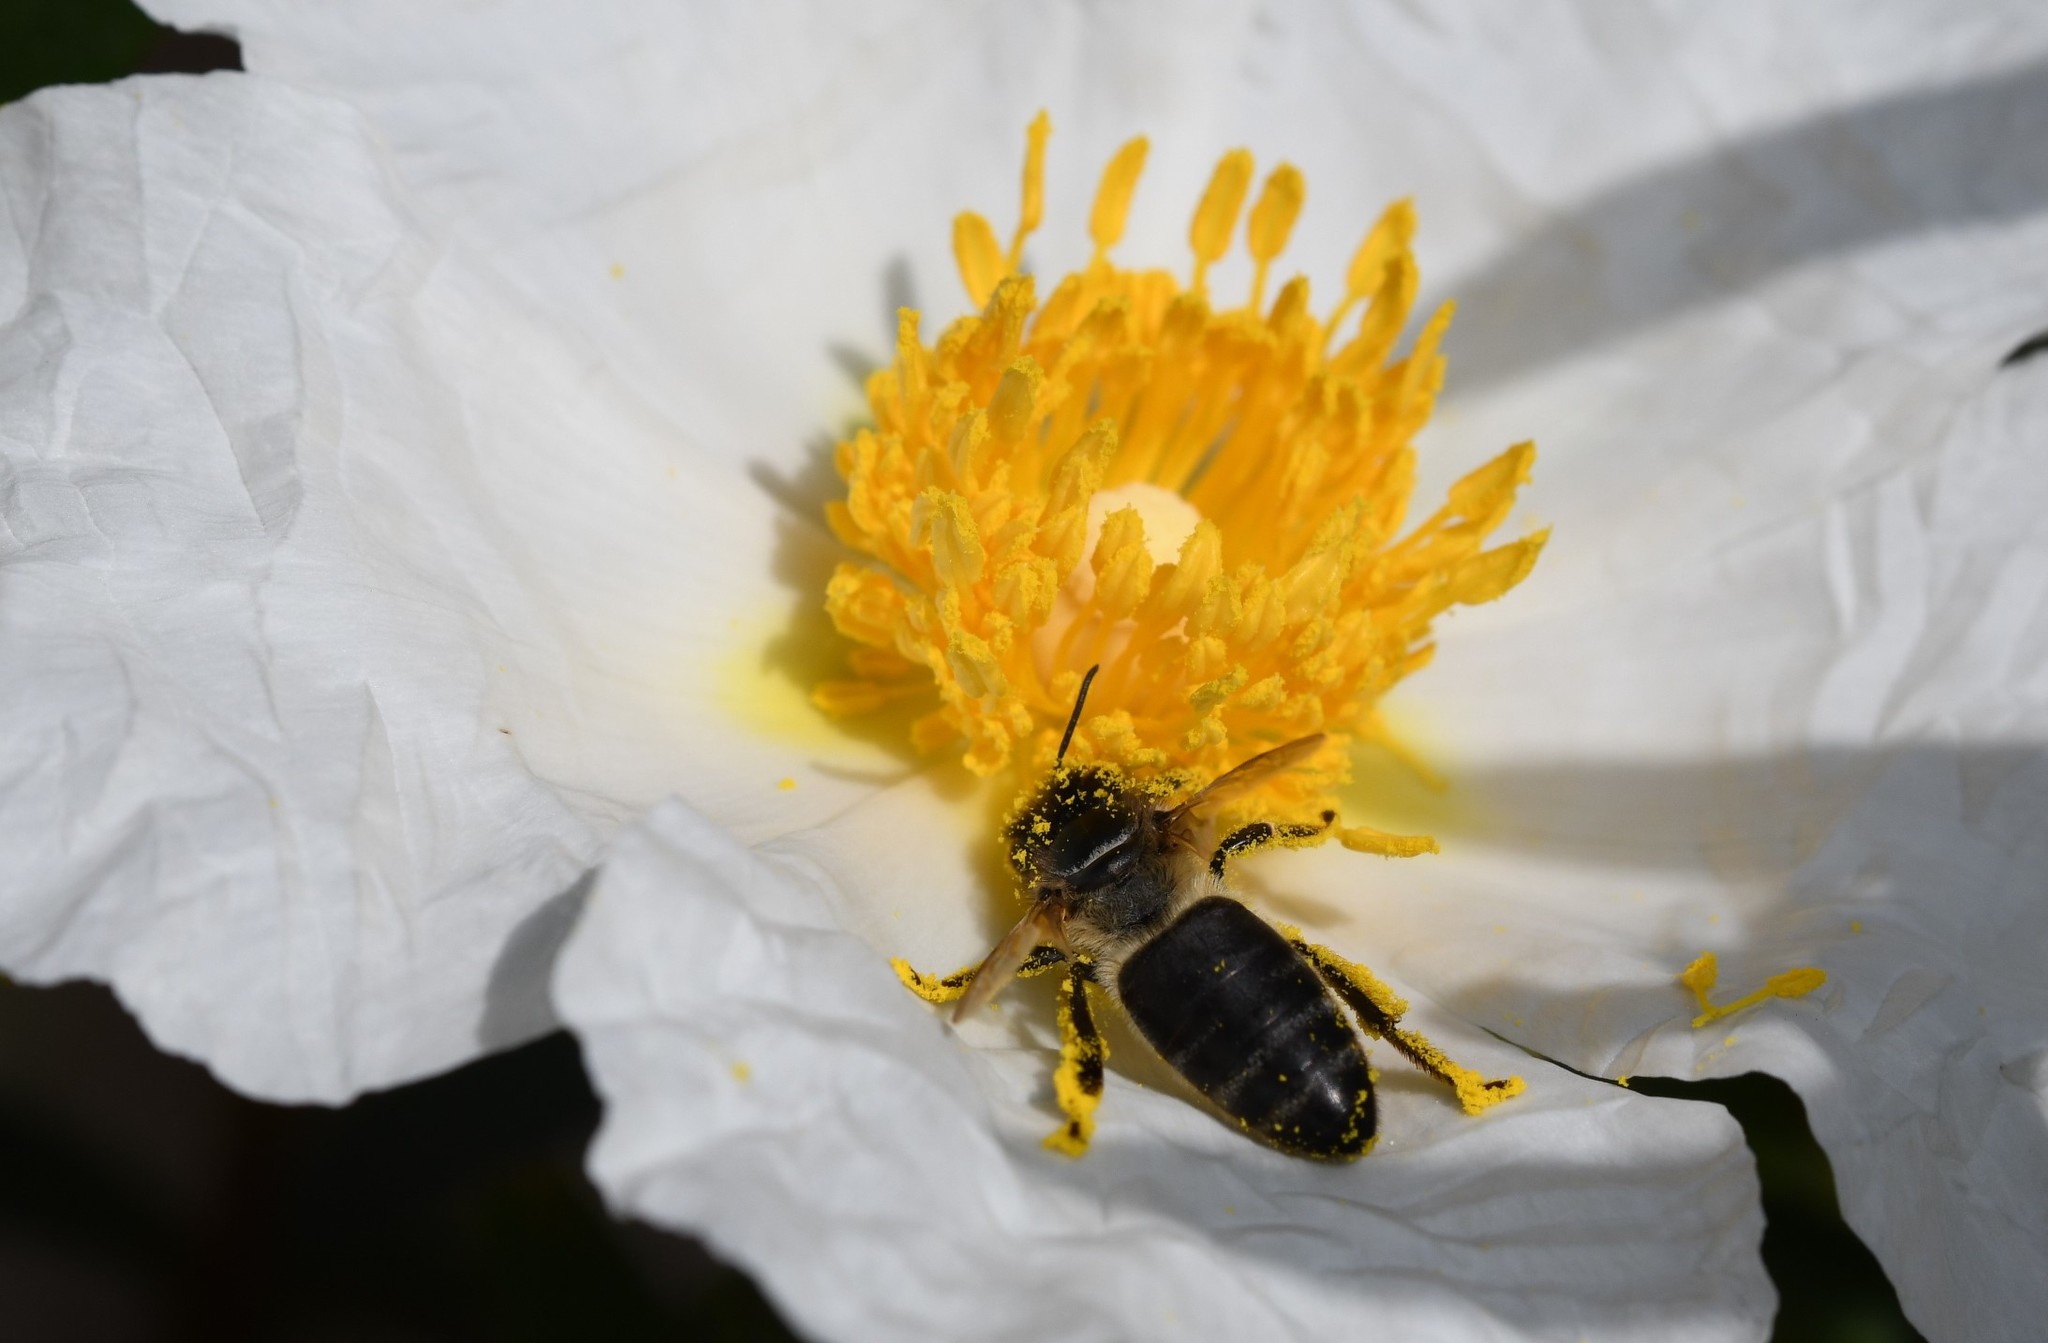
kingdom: Animalia
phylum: Arthropoda
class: Insecta
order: Hymenoptera
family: Apidae
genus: Apis
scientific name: Apis mellifera
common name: Honey bee
